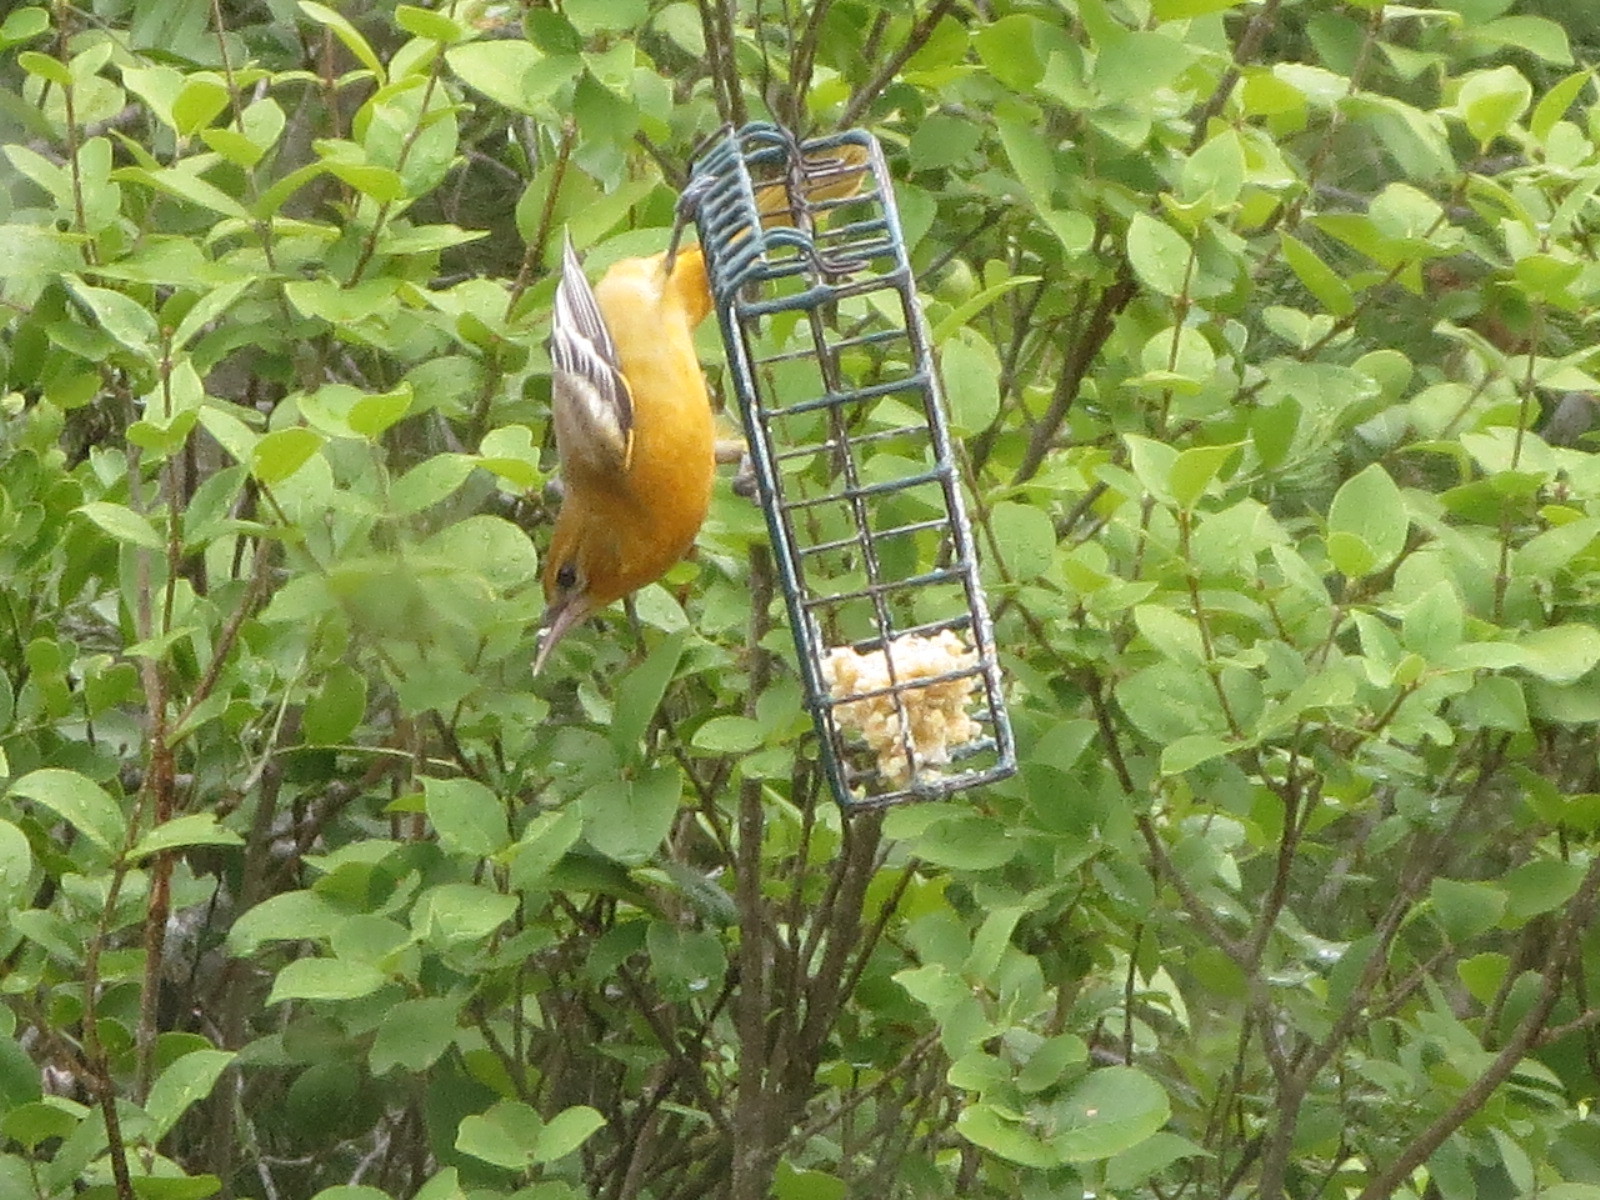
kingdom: Animalia
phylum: Chordata
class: Aves
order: Passeriformes
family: Icteridae
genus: Icterus
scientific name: Icterus cucullatus
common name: Hooded oriole
